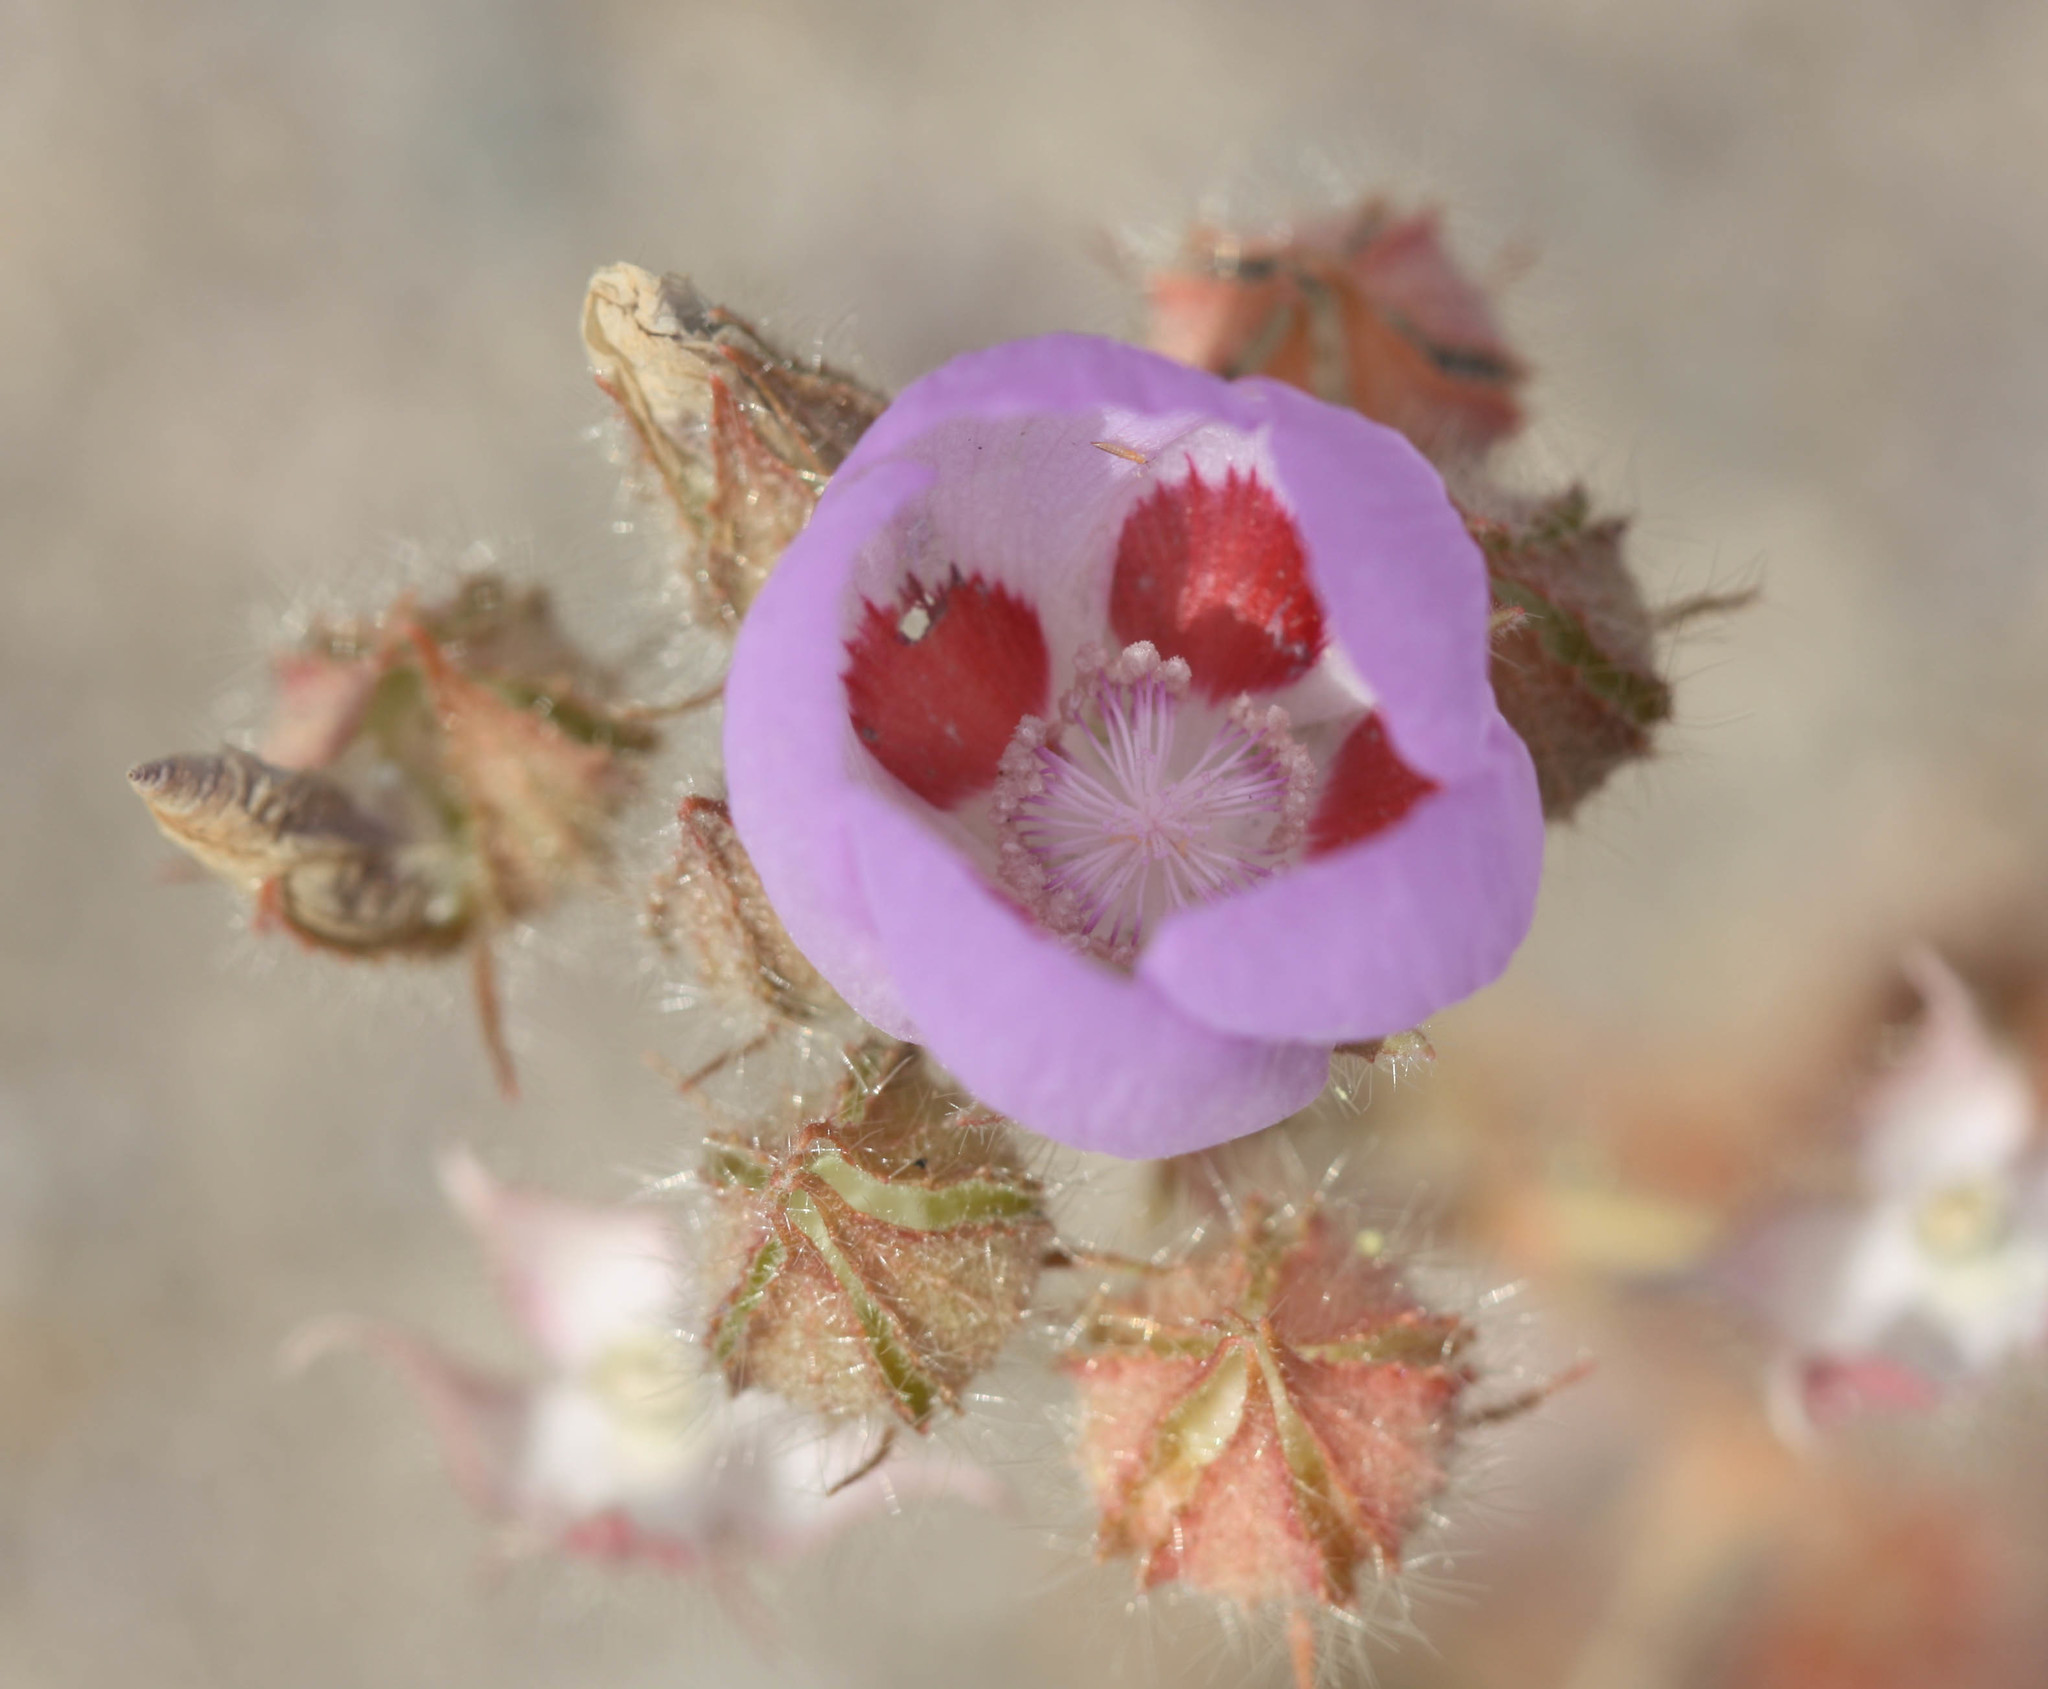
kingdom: Plantae
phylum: Tracheophyta
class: Magnoliopsida
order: Malvales
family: Malvaceae
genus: Eremalche
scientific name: Eremalche rotundifolia
